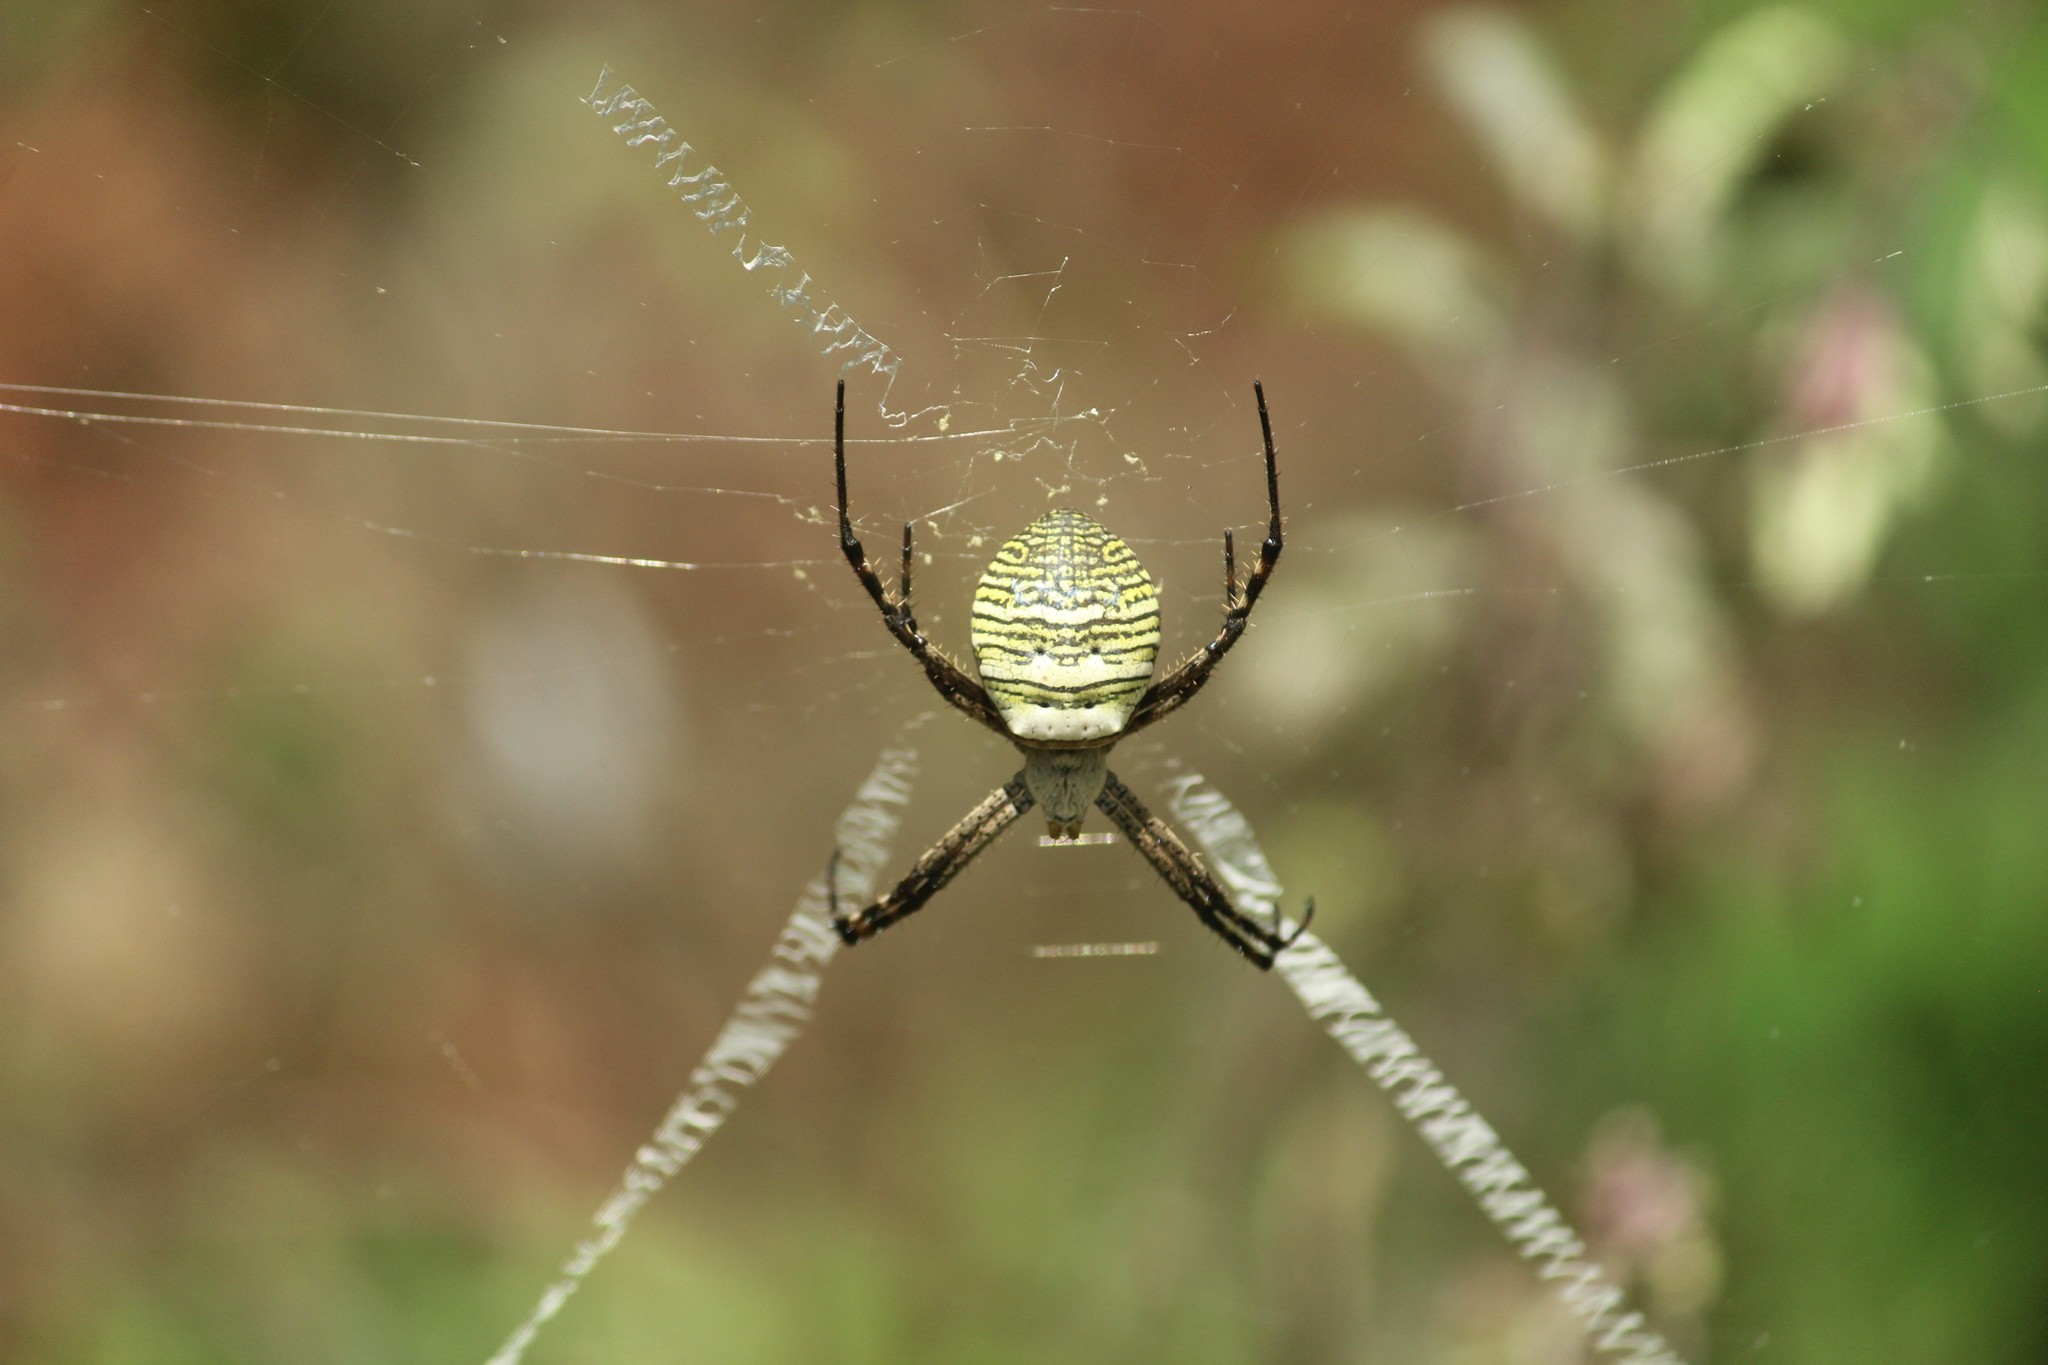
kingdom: Animalia
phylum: Arthropoda
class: Arachnida
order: Araneae
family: Araneidae
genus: Argiope
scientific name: Argiope aemula
